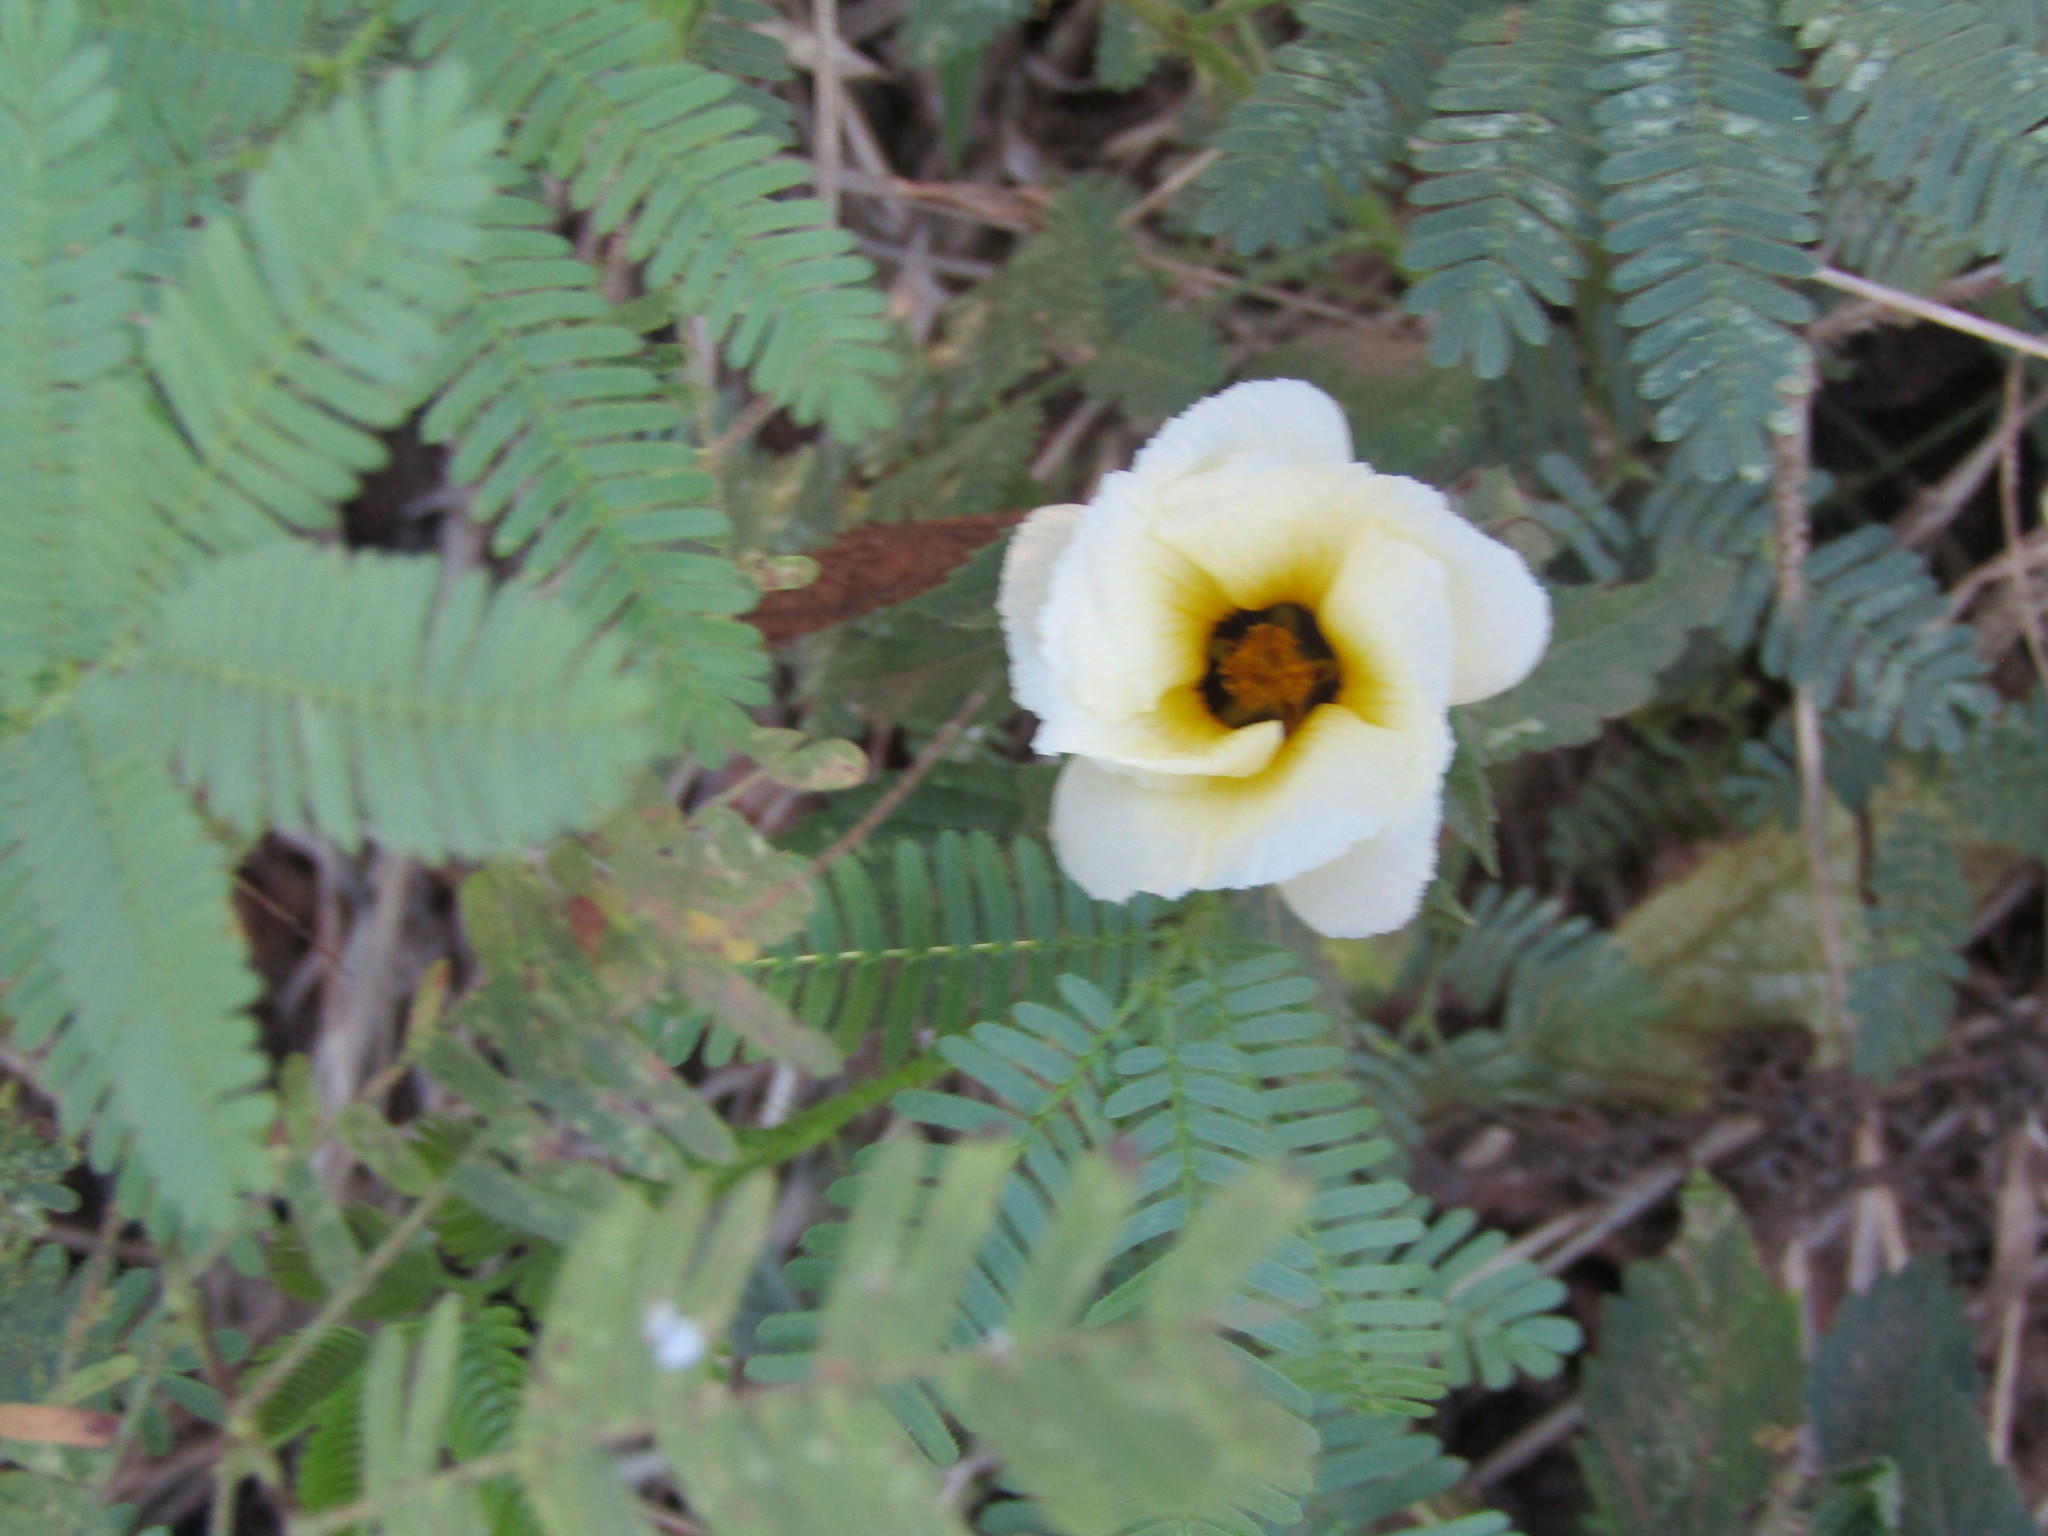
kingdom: Plantae
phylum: Tracheophyta
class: Magnoliopsida
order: Malpighiales
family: Turneraceae
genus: Turnera
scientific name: Turnera subulata
